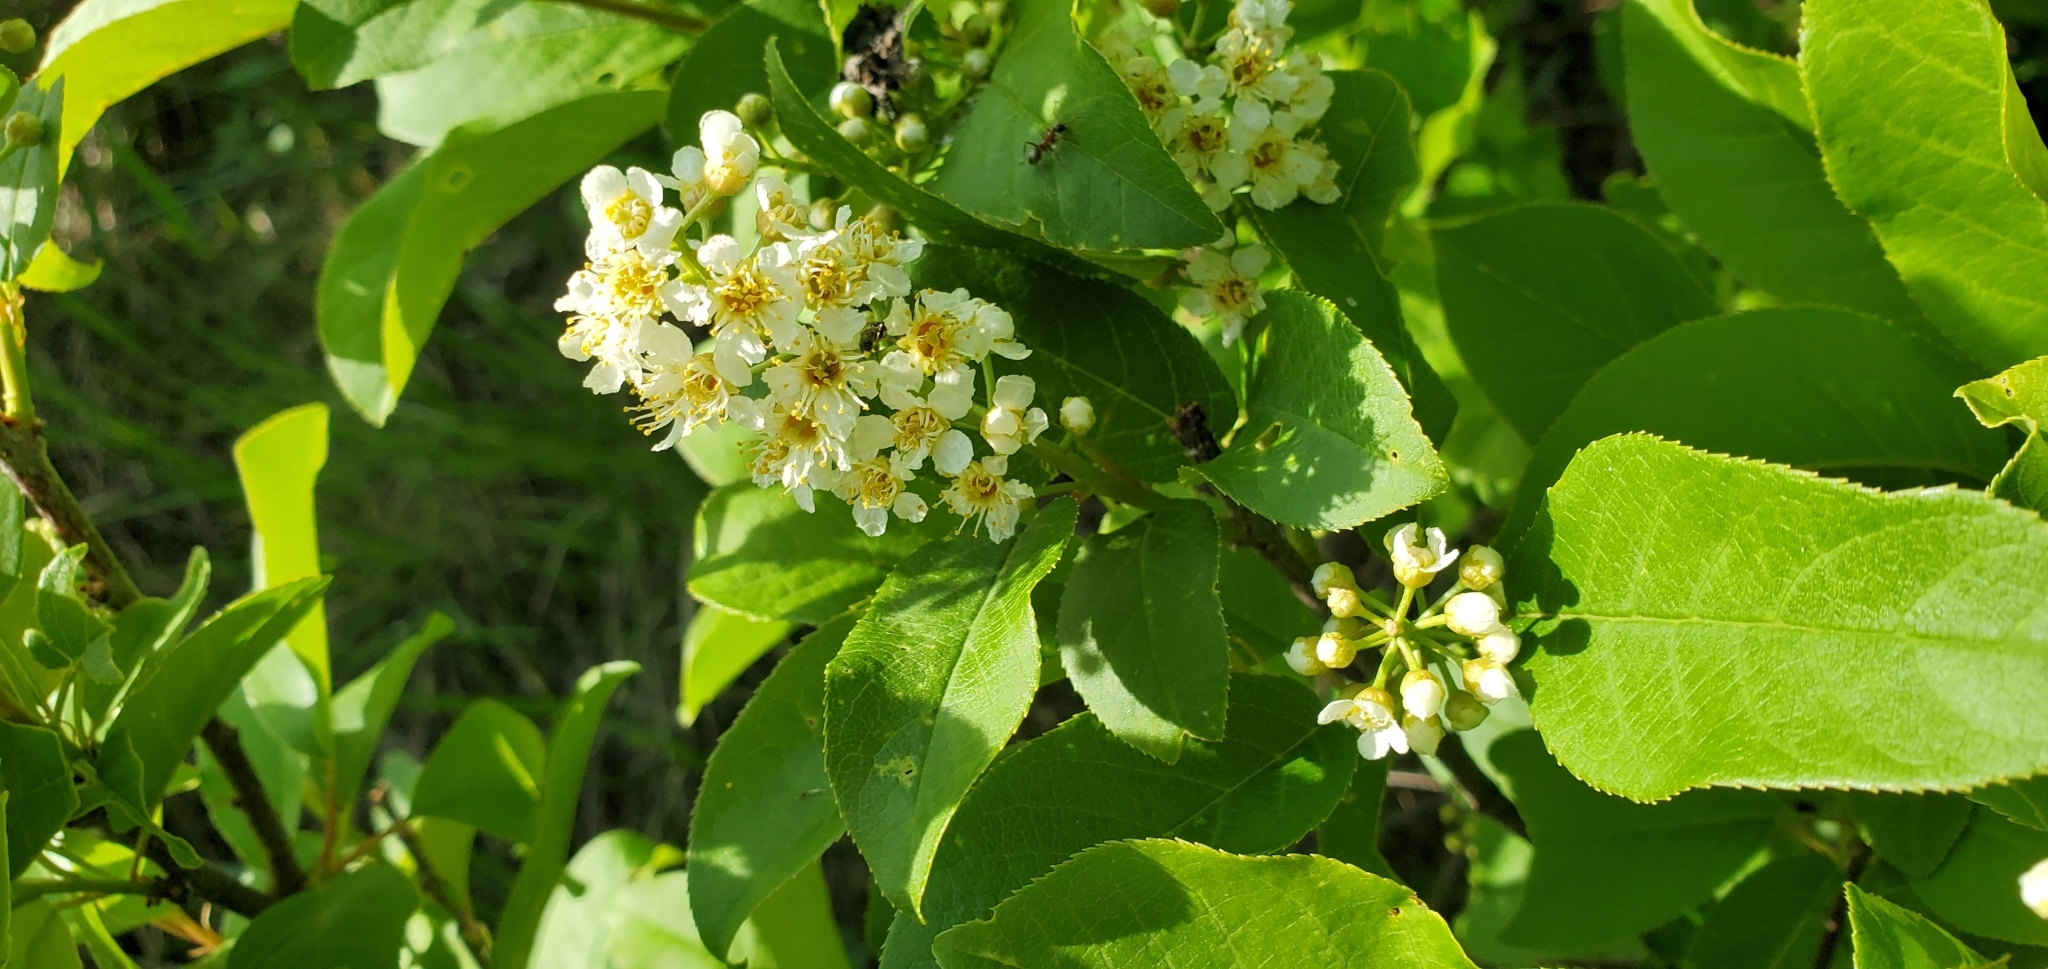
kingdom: Plantae
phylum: Tracheophyta
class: Magnoliopsida
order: Rosales
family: Rosaceae
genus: Prunus
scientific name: Prunus virginiana
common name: Chokecherry
